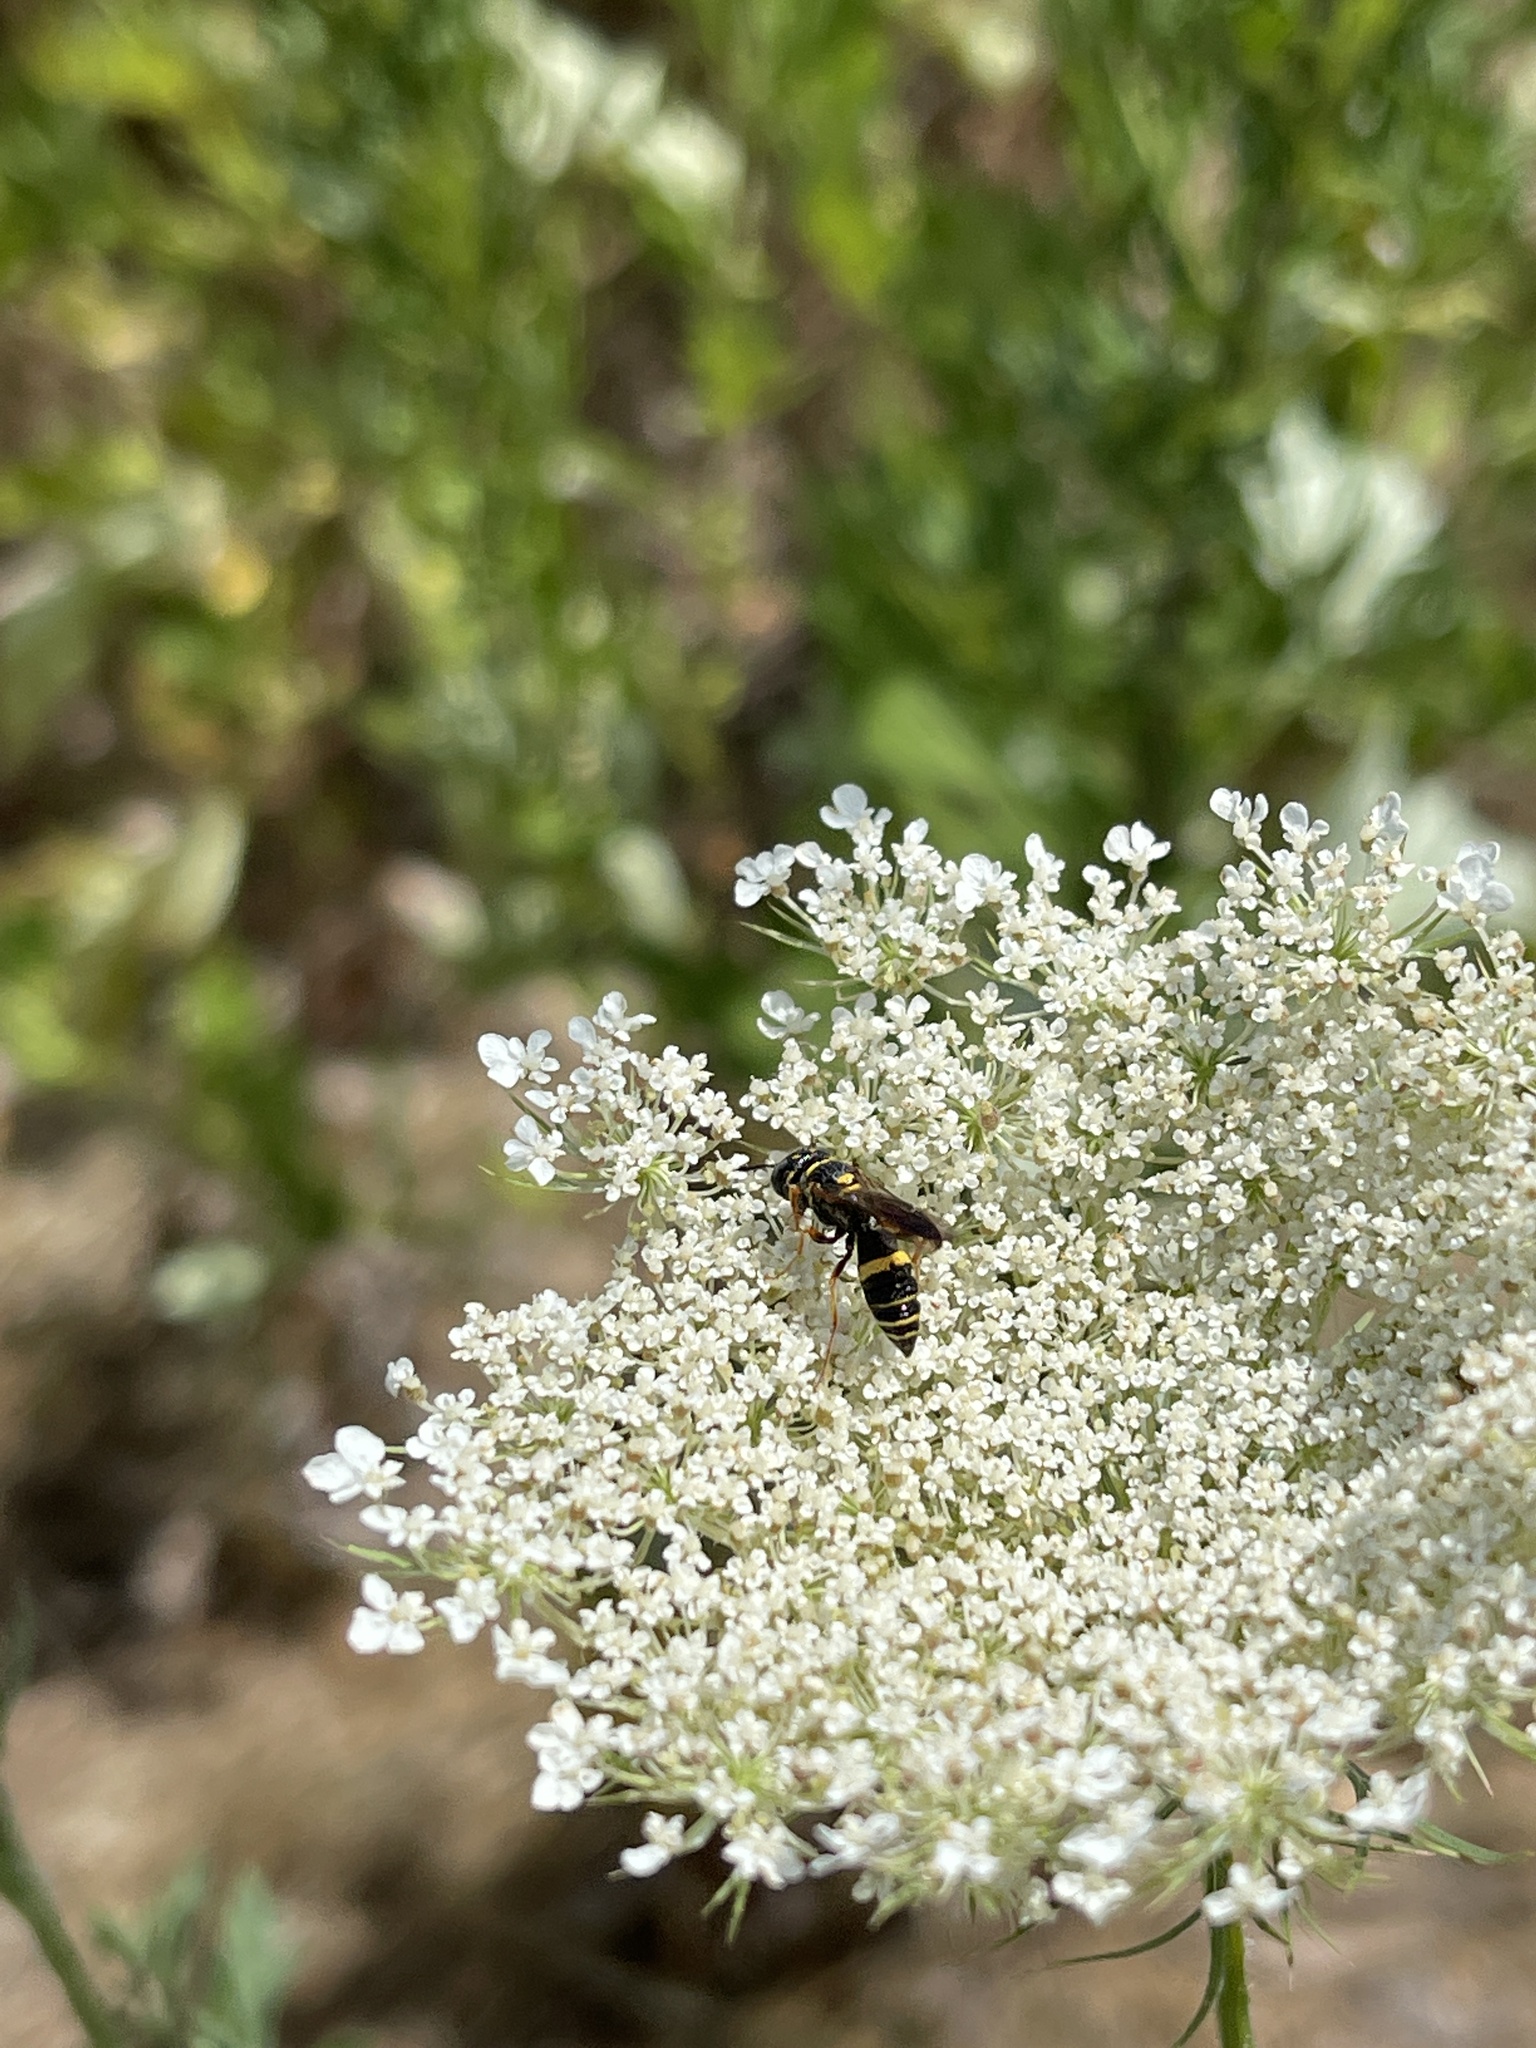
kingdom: Animalia
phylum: Arthropoda
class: Insecta
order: Hymenoptera
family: Crabronidae
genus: Philanthus
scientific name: Philanthus gibbosus
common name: Humped beewolf
